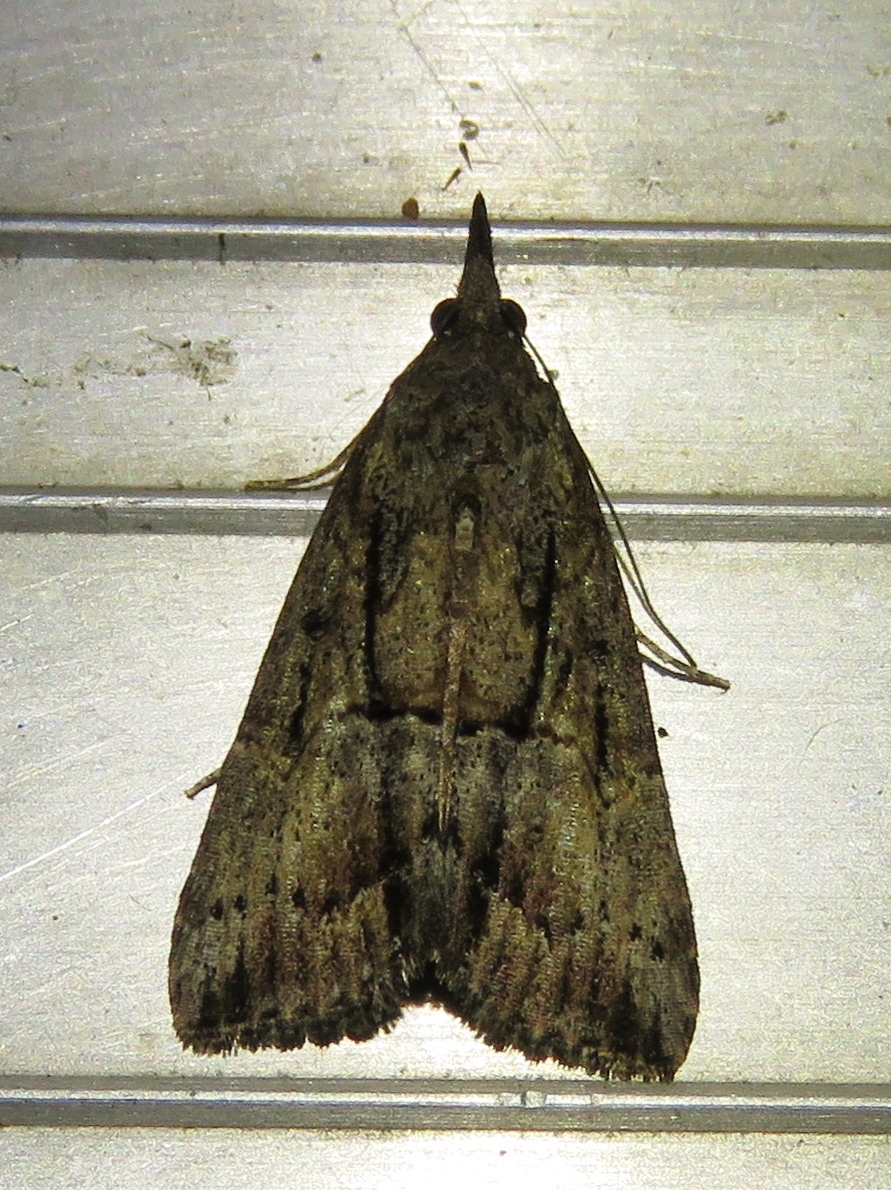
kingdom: Animalia
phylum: Arthropoda
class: Insecta
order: Lepidoptera
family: Erebidae
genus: Hypena
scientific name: Hypena scabra
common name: Green cloverworm
